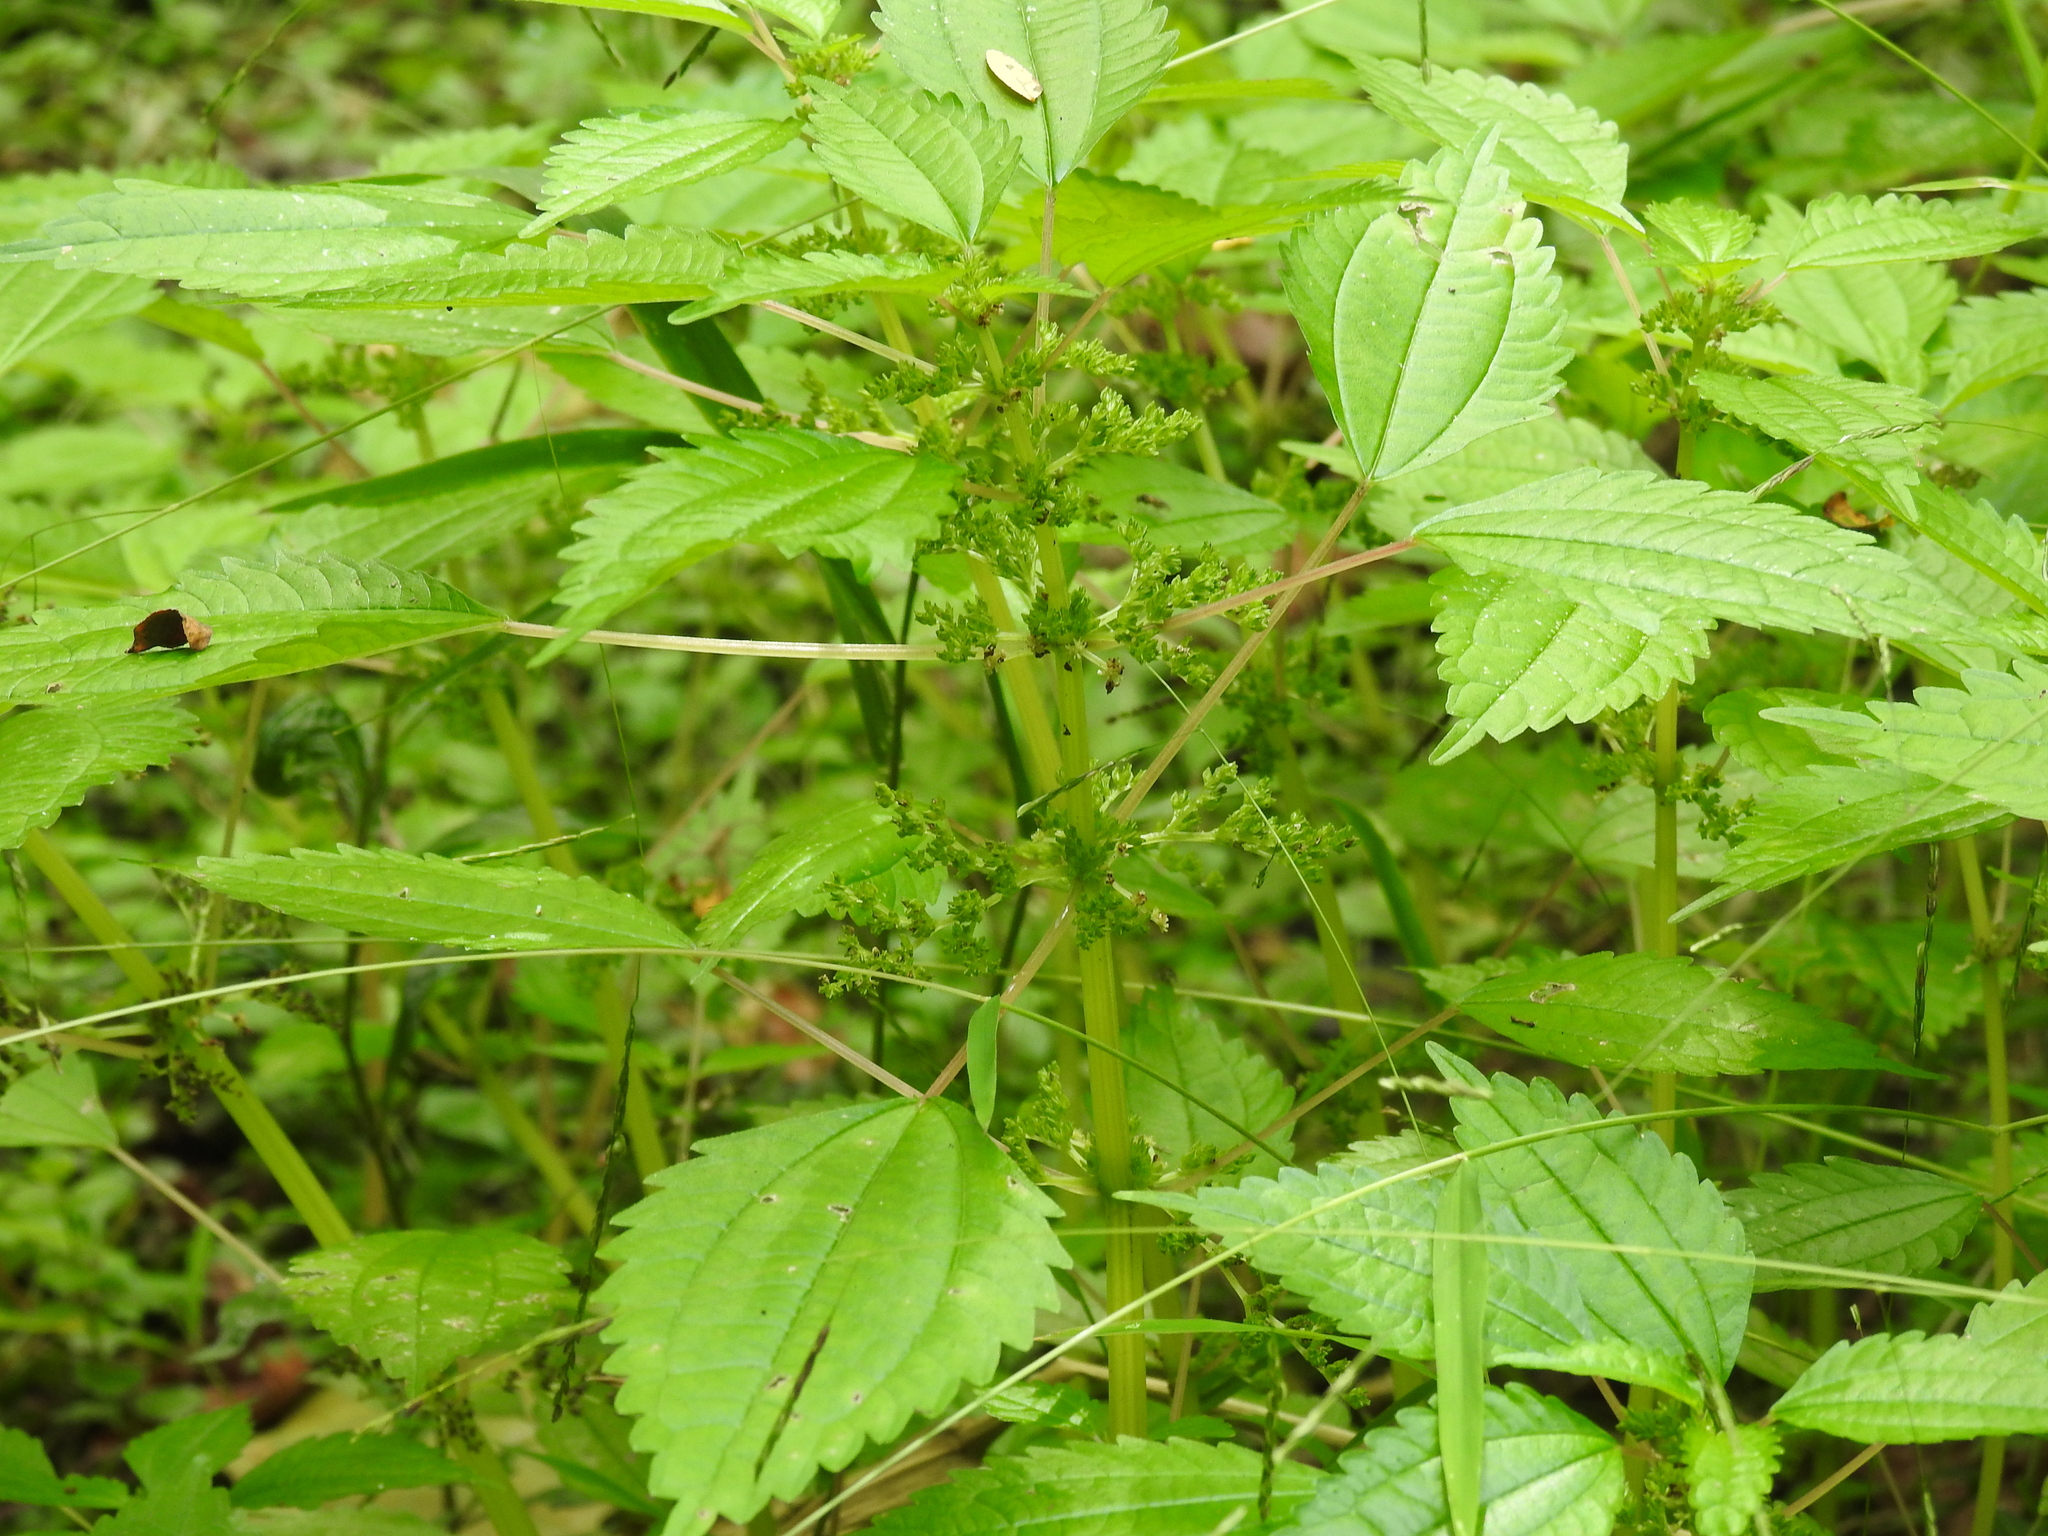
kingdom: Plantae
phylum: Tracheophyta
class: Magnoliopsida
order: Rosales
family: Urticaceae
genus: Pilea
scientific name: Pilea pumila
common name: Clearweed
